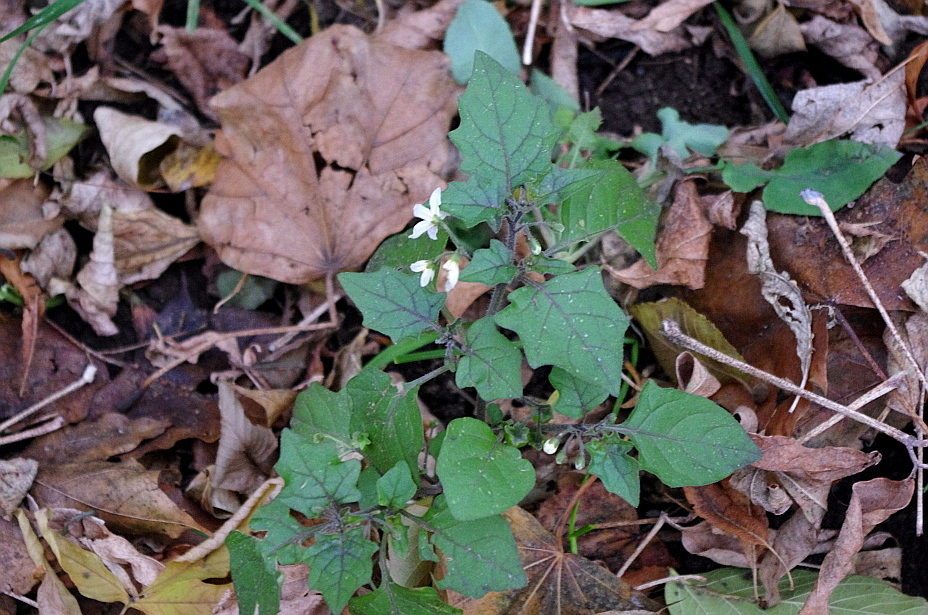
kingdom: Plantae
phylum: Tracheophyta
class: Magnoliopsida
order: Solanales
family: Solanaceae
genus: Solanum
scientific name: Solanum nigrum
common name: Black nightshade
